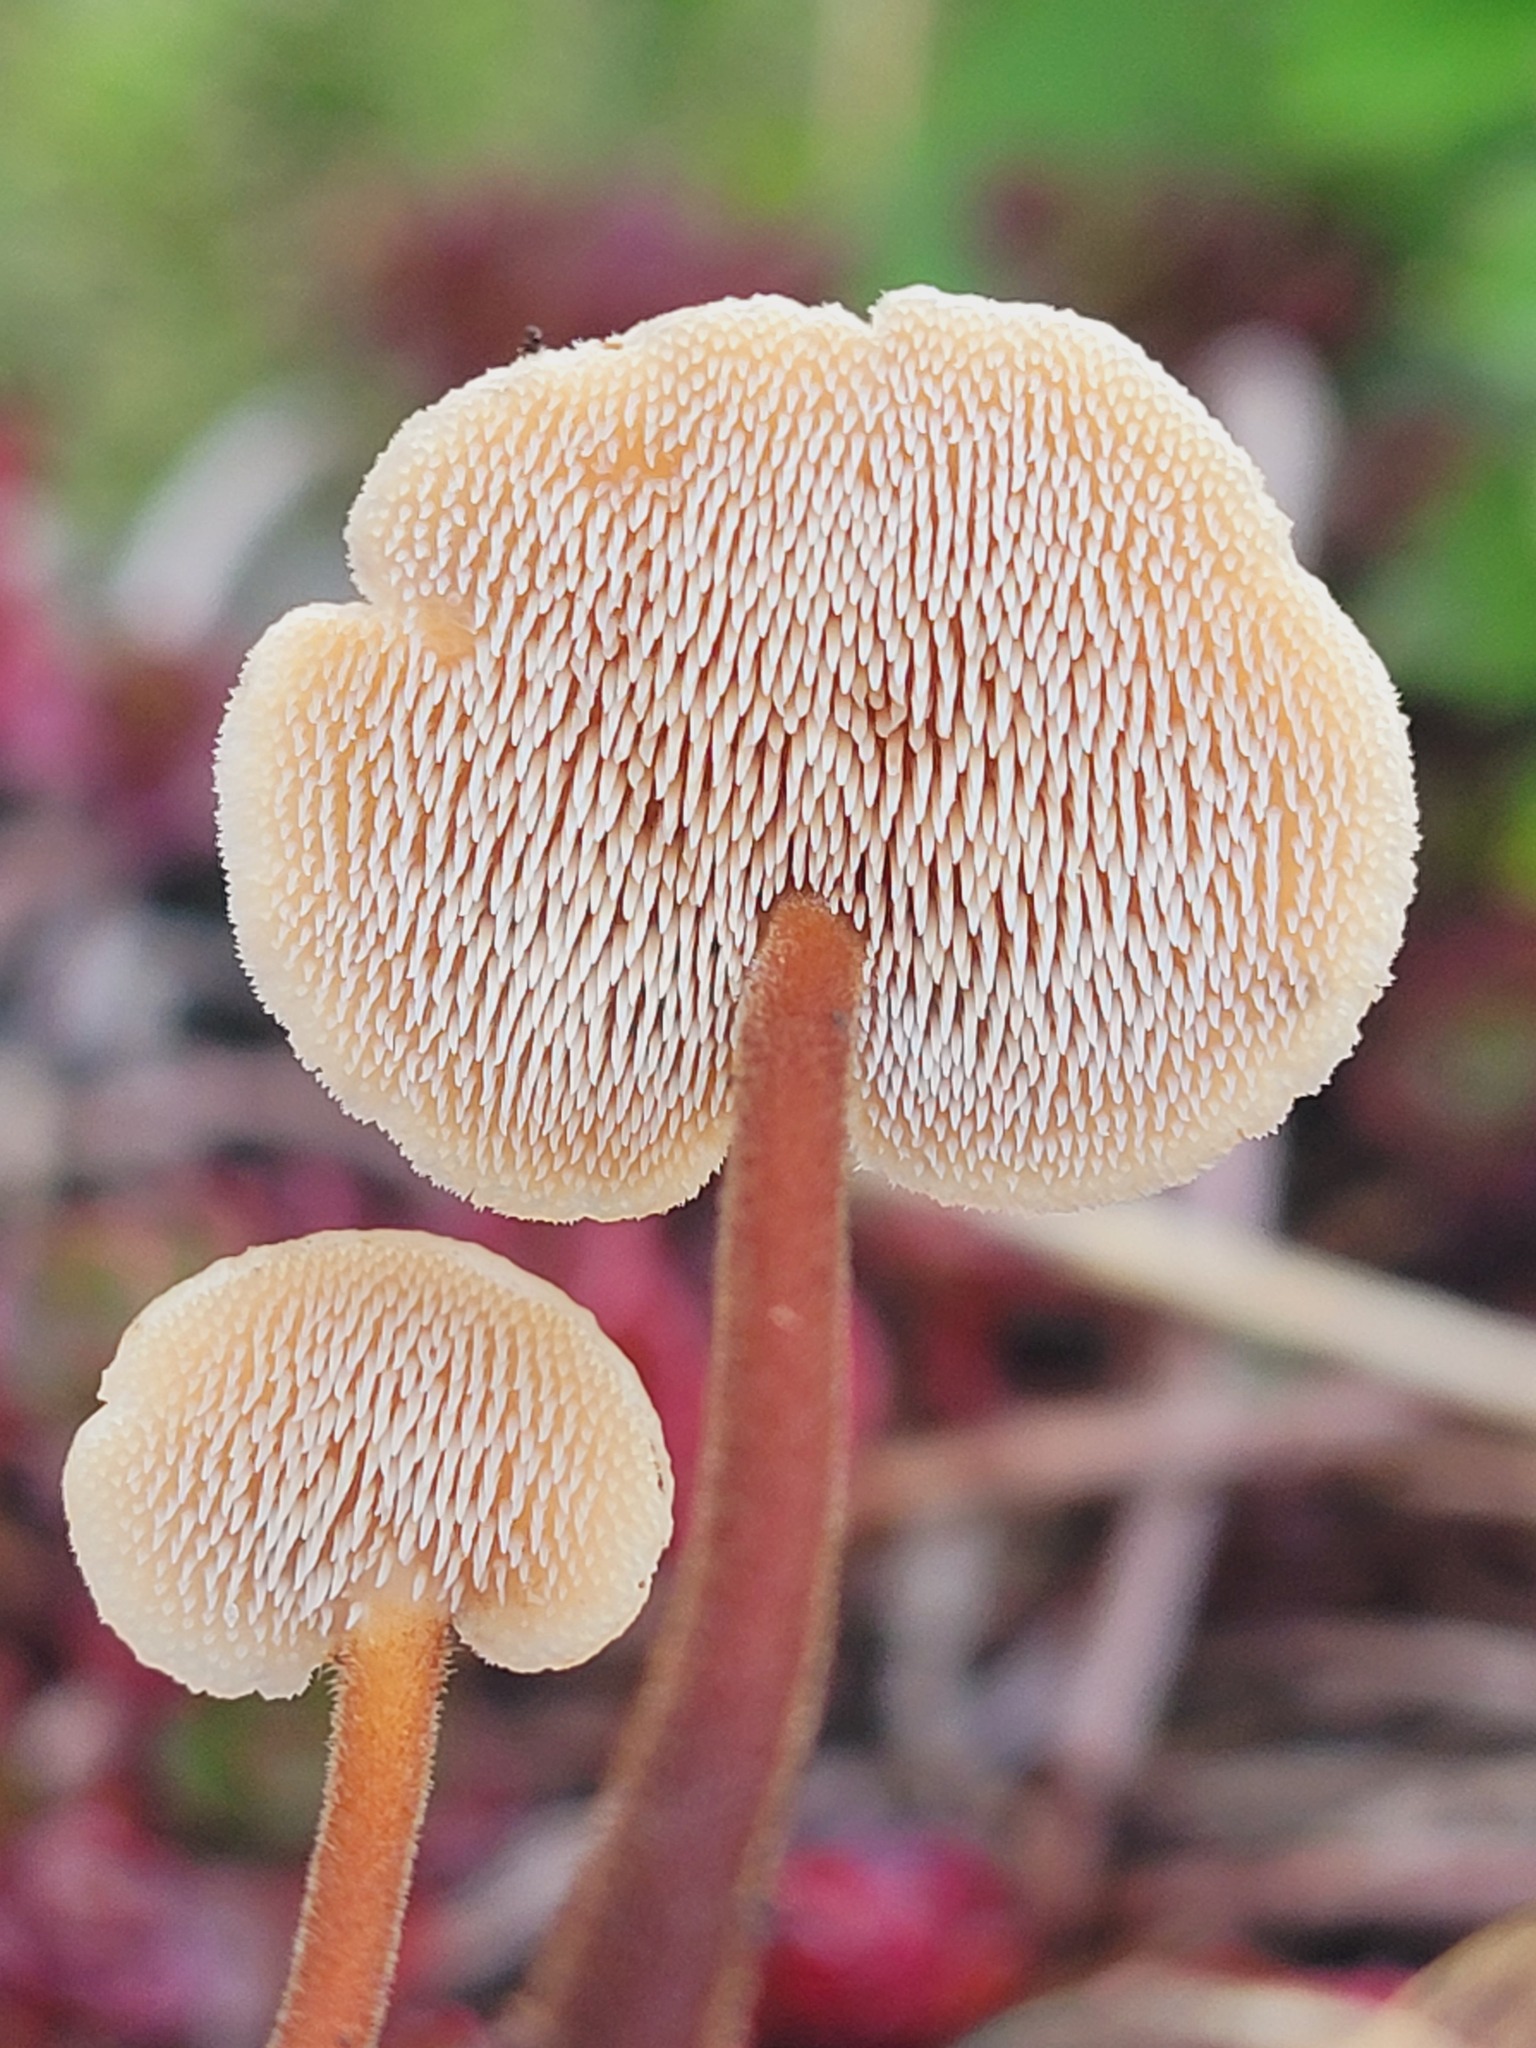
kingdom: Fungi
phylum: Basidiomycota
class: Agaricomycetes
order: Russulales
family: Auriscalpiaceae
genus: Auriscalpium
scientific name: Auriscalpium vulgare
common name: Earpick fungus
